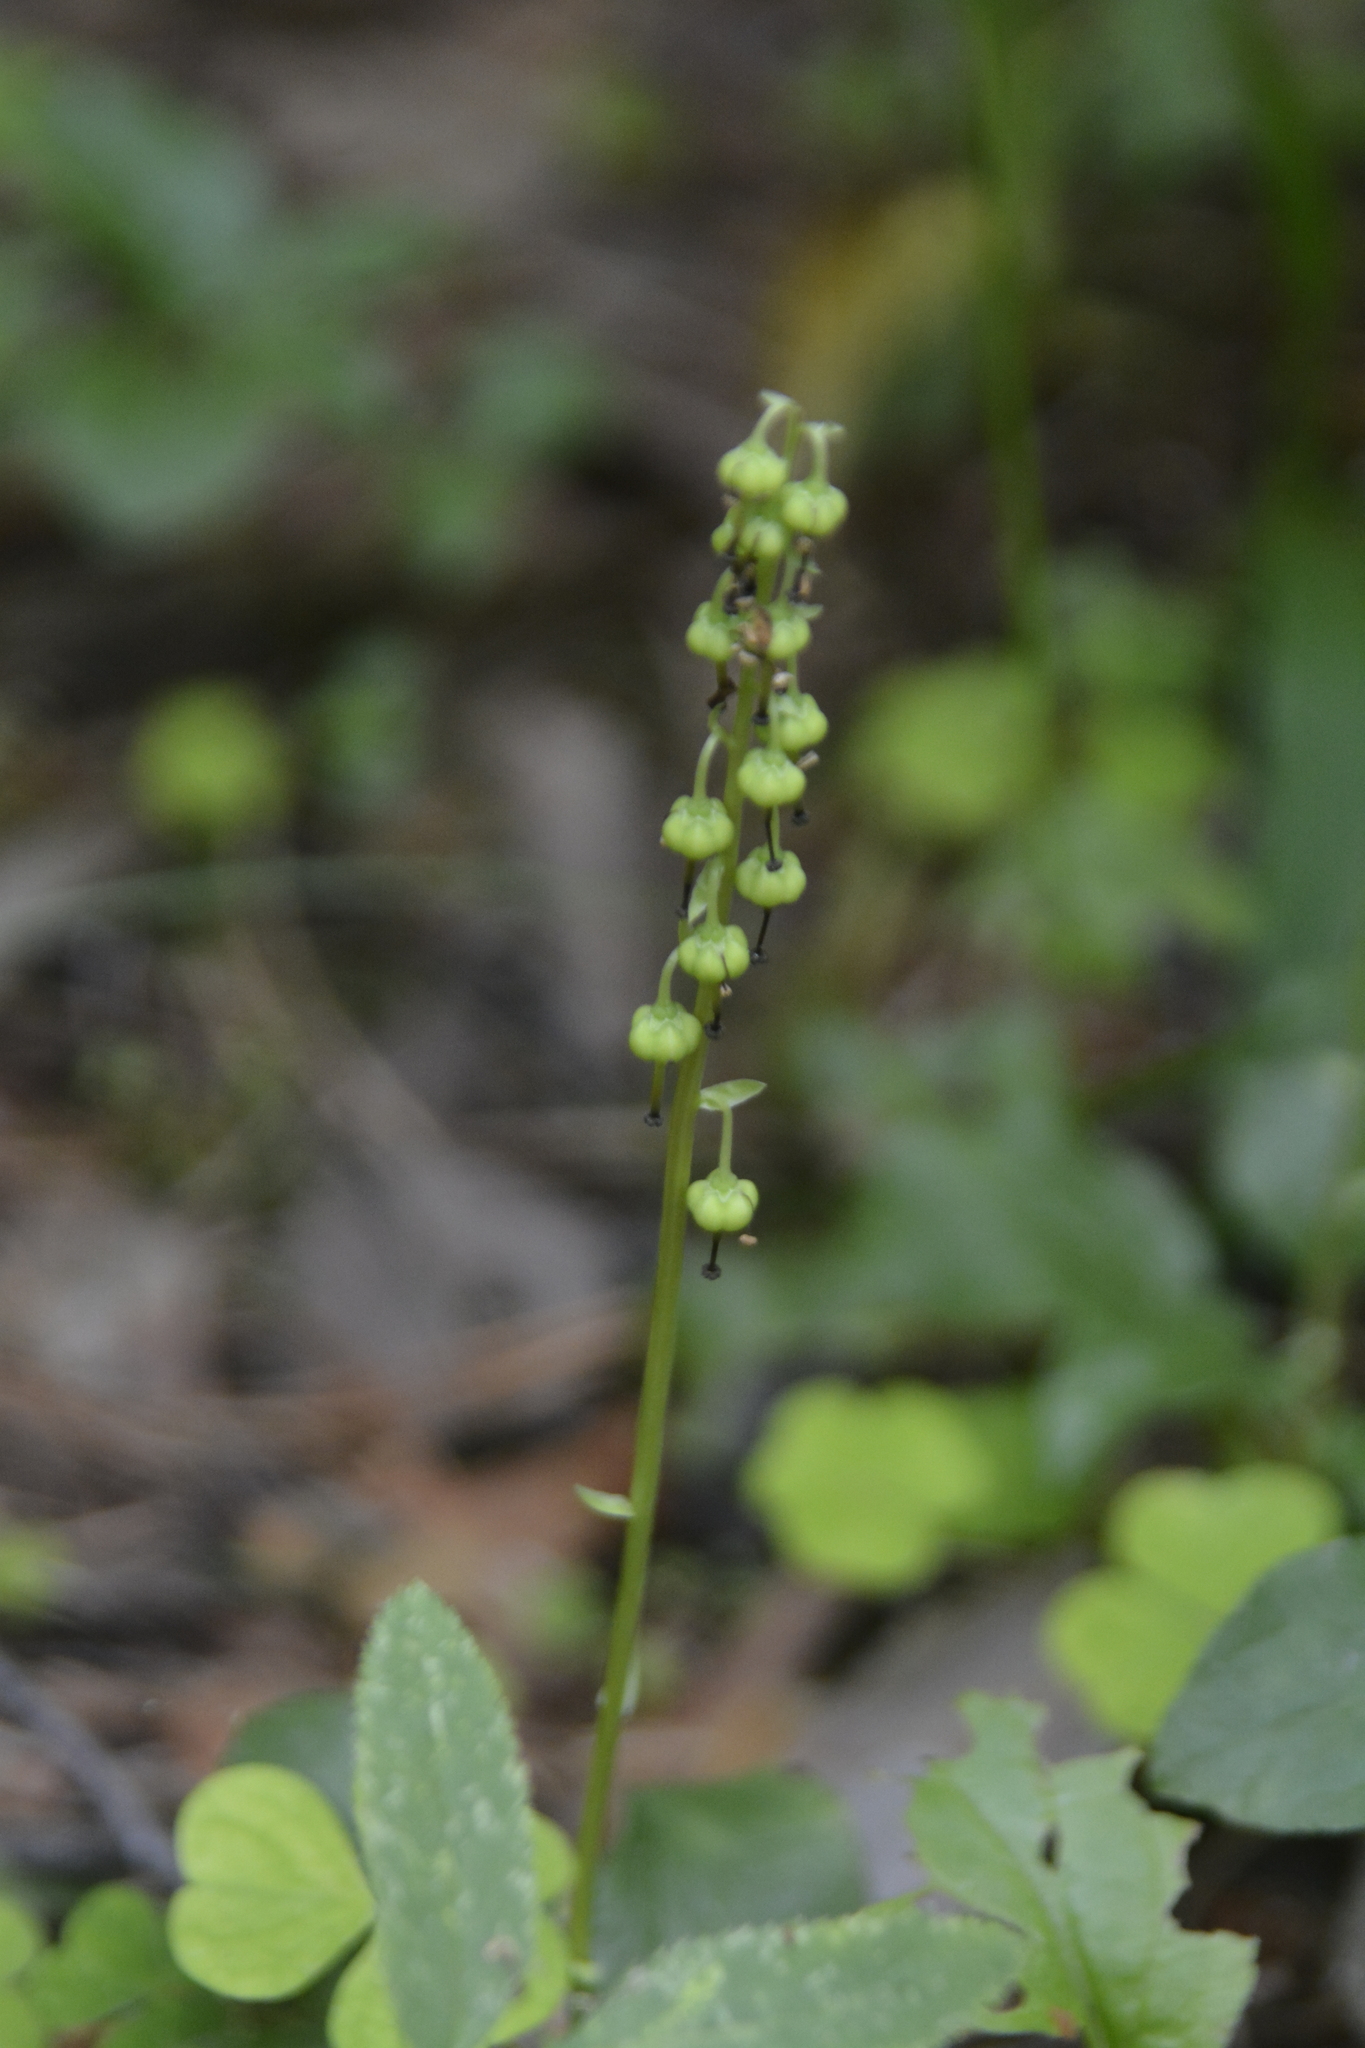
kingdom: Plantae
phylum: Tracheophyta
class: Magnoliopsida
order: Ericales
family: Ericaceae
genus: Orthilia
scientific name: Orthilia secunda
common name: One-sided orthilia
